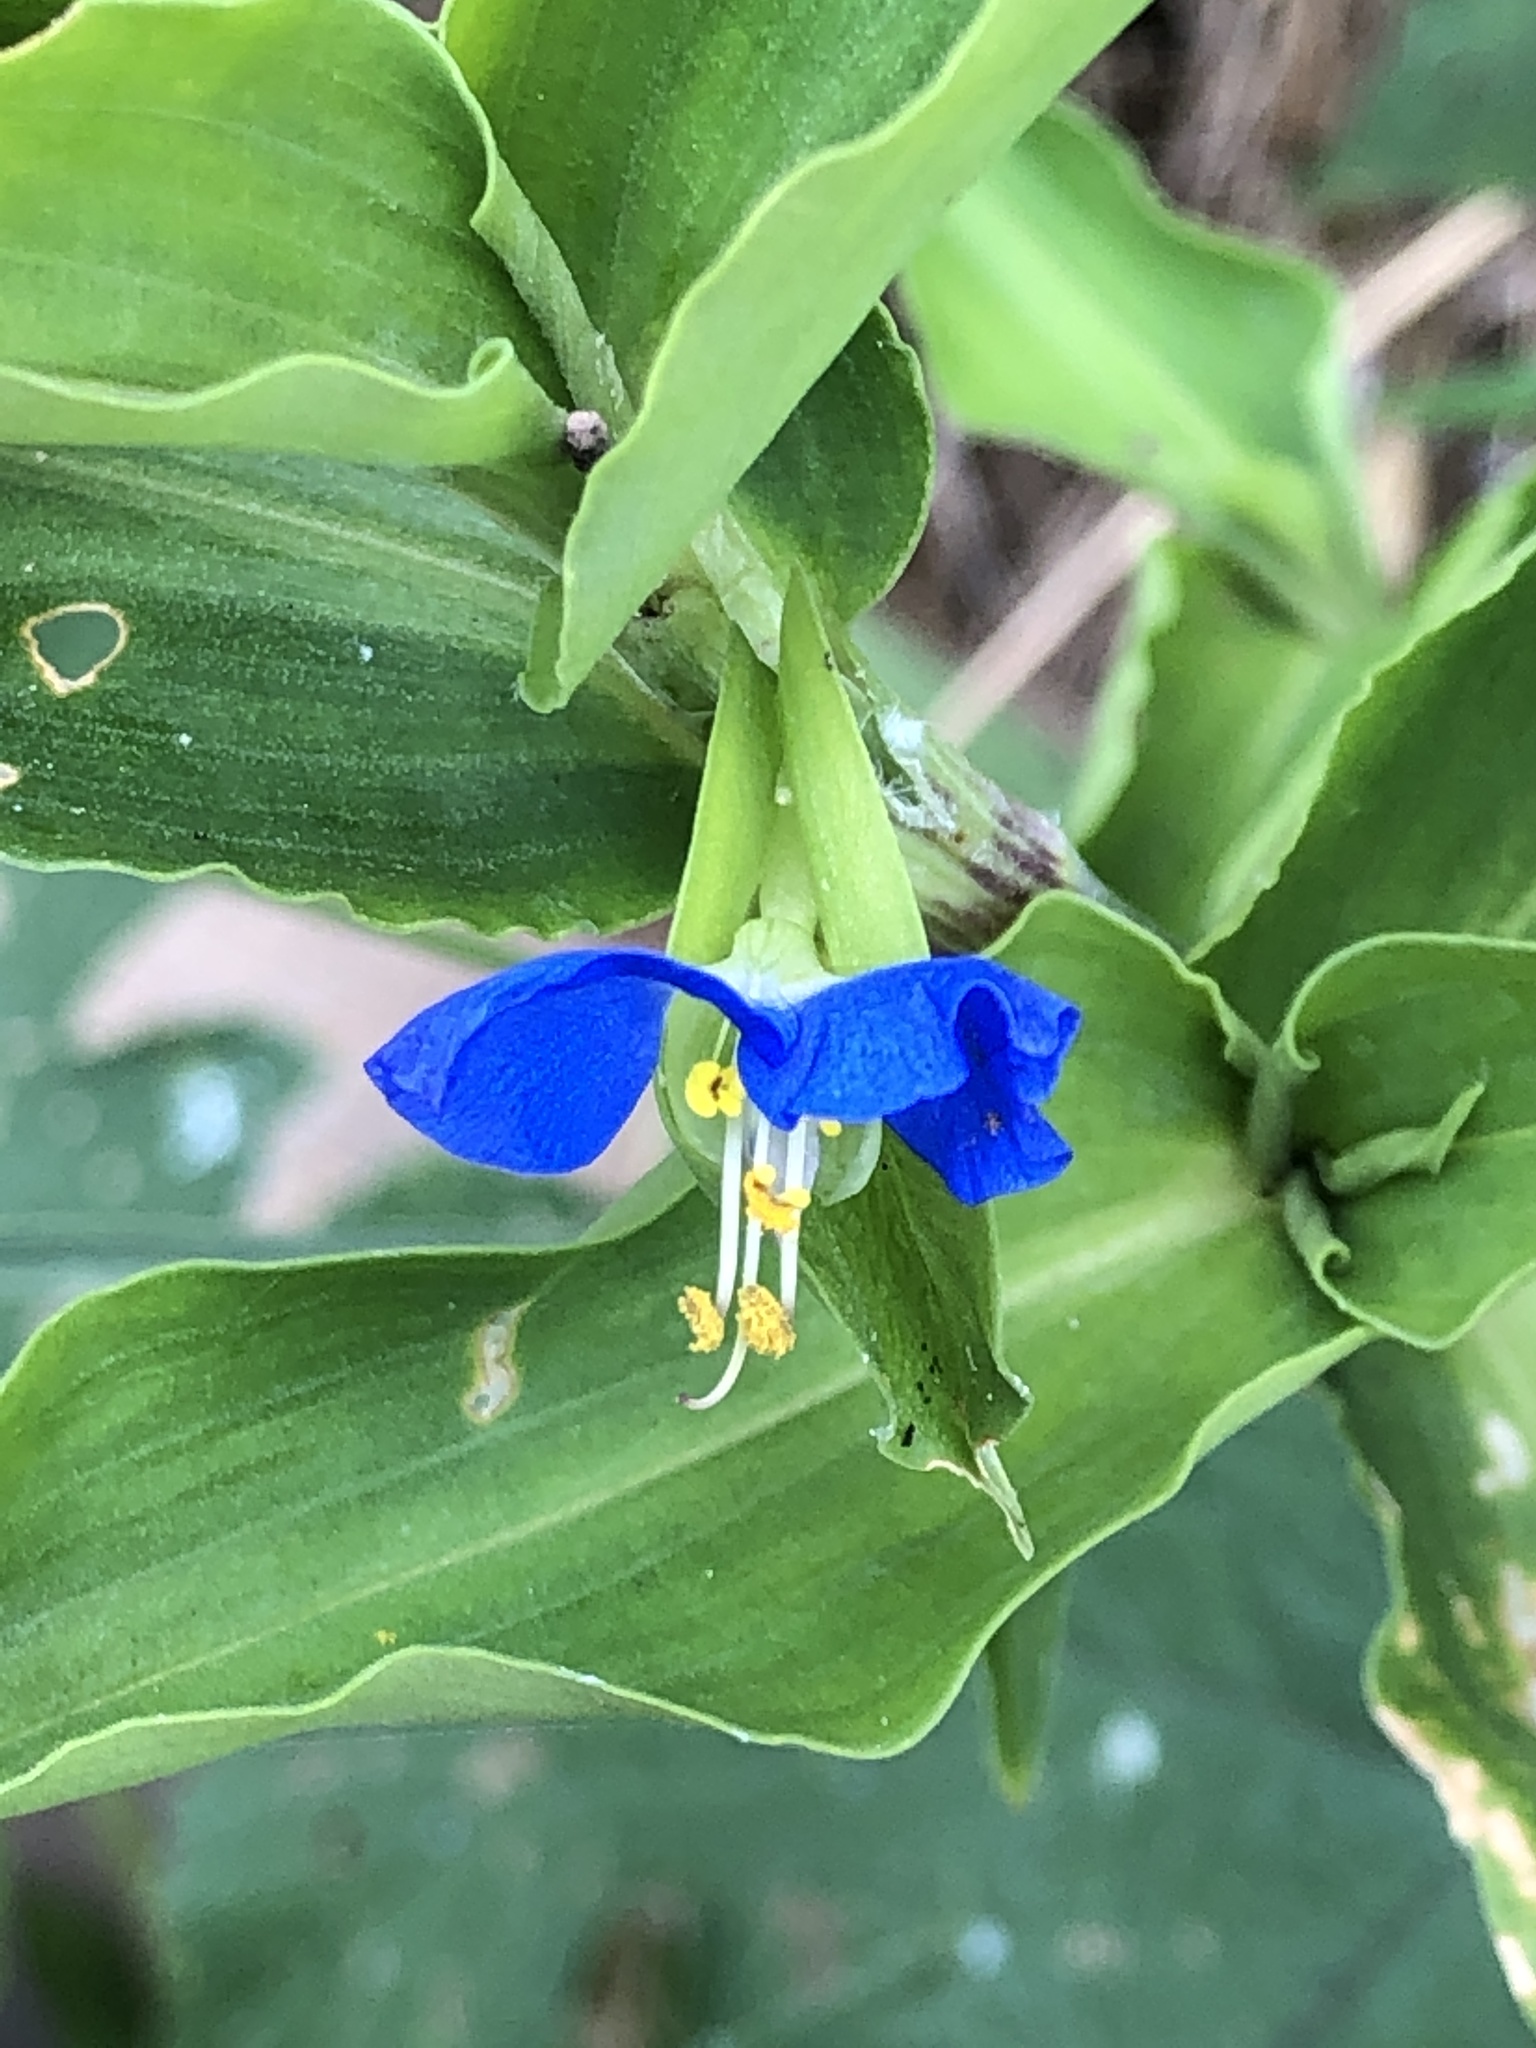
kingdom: Plantae
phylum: Tracheophyta
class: Liliopsida
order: Commelinales
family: Commelinaceae
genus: Commelina
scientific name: Commelina communis
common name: Asiatic dayflower
